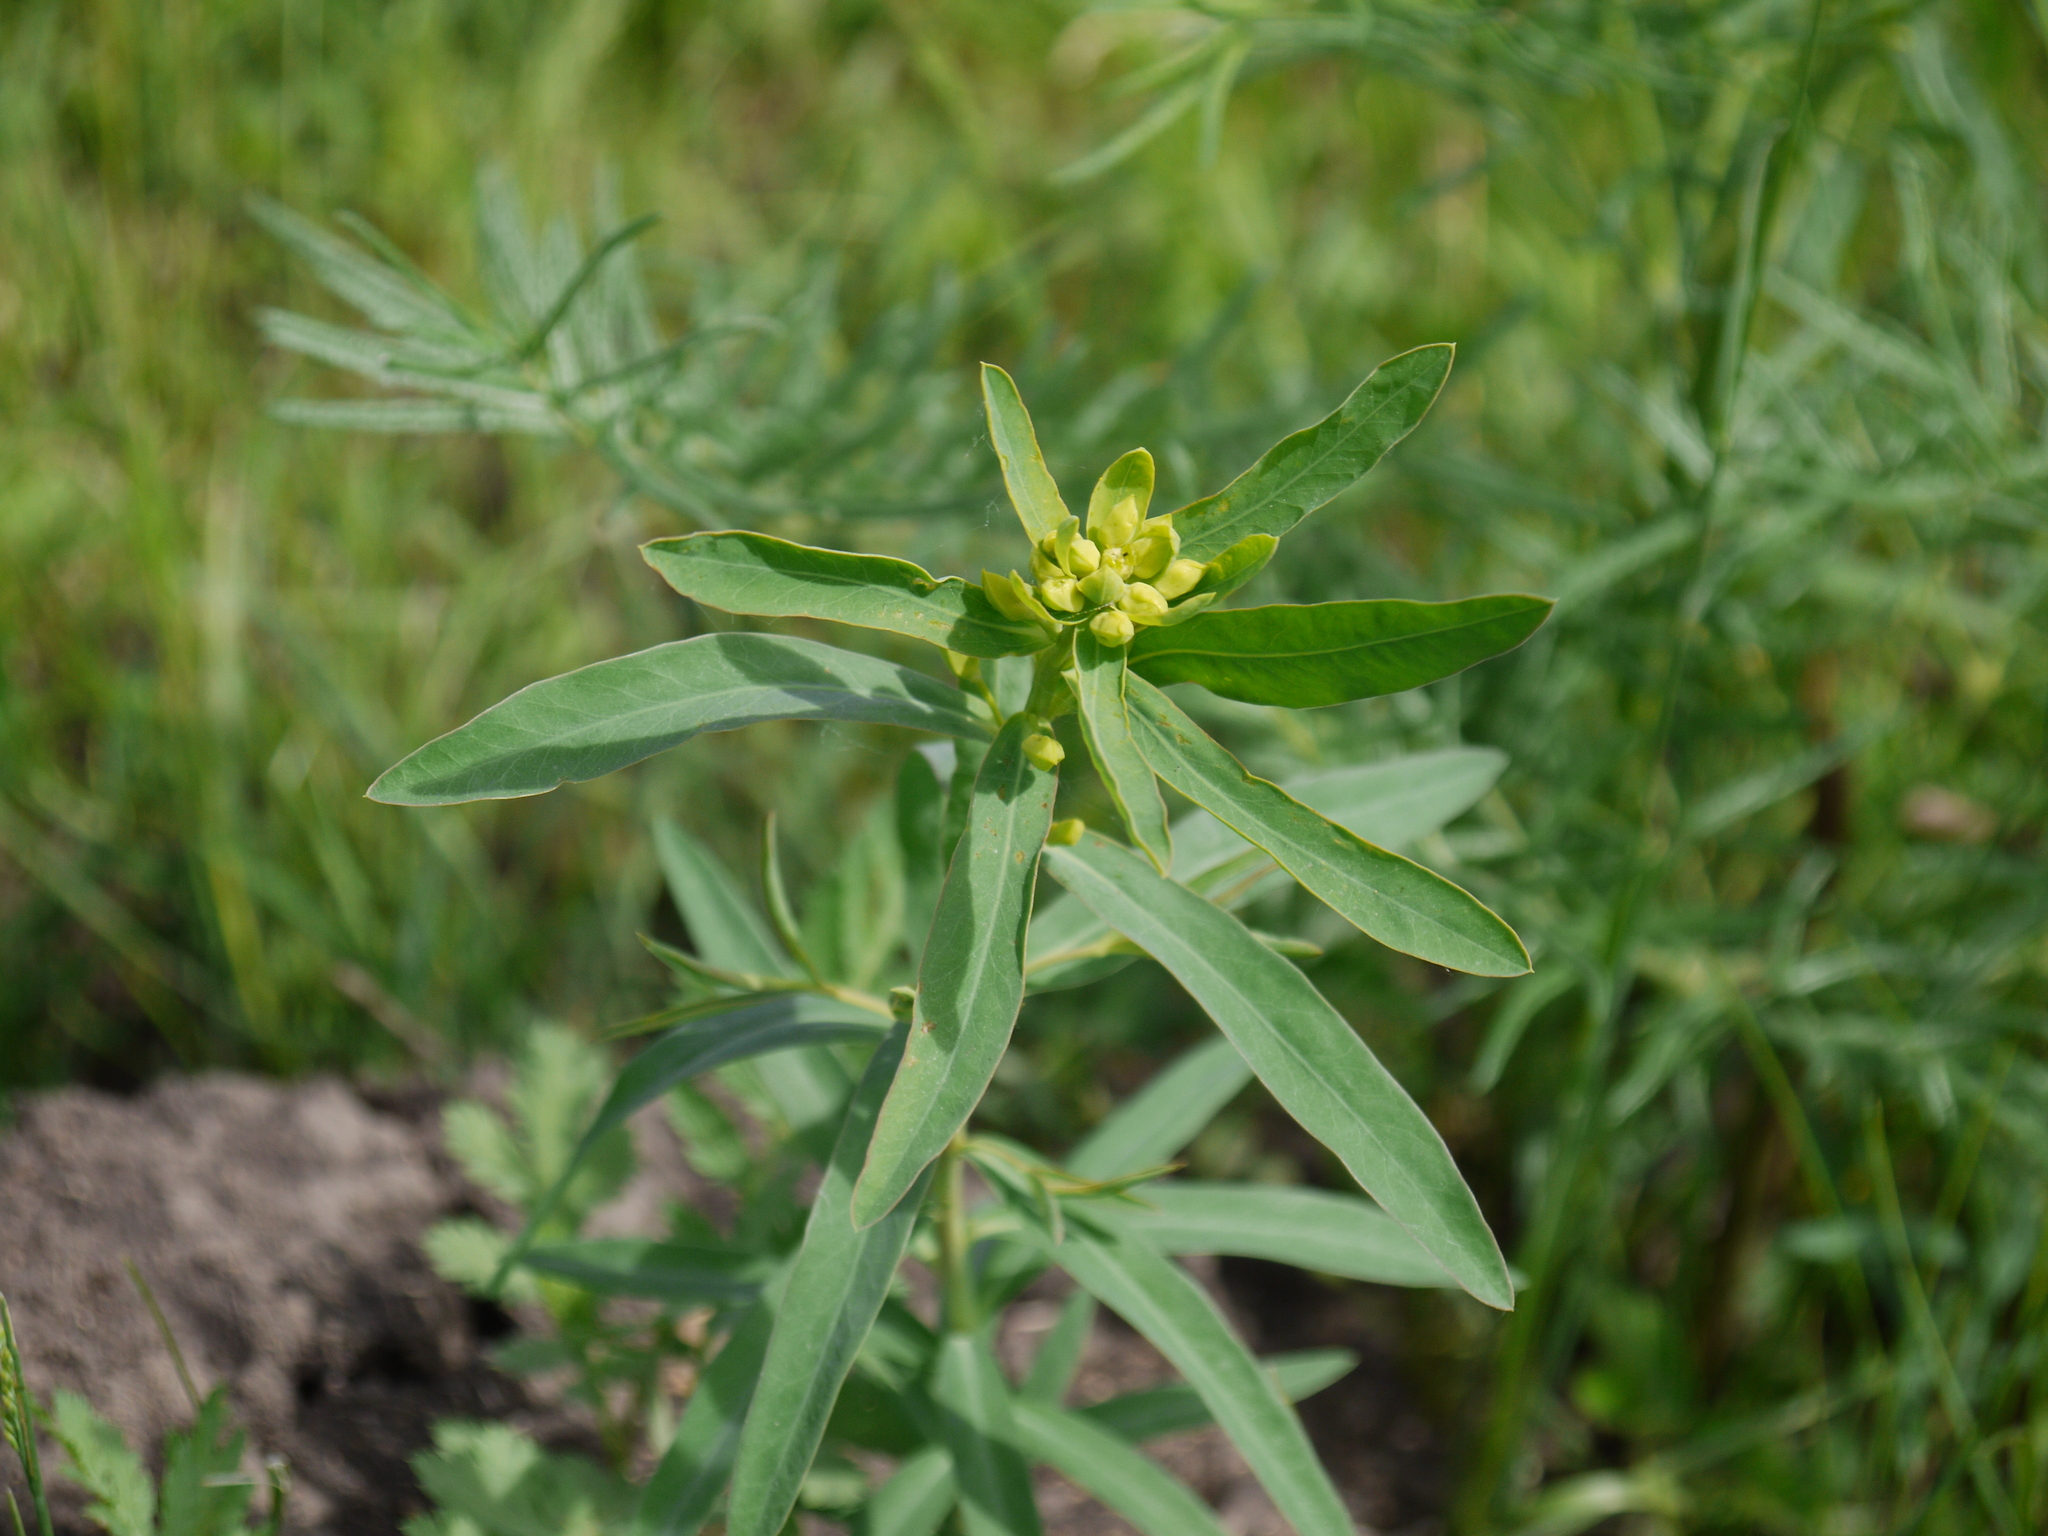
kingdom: Plantae
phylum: Tracheophyta
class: Magnoliopsida
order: Malpighiales
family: Euphorbiaceae
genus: Euphorbia
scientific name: Euphorbia semivillosa
